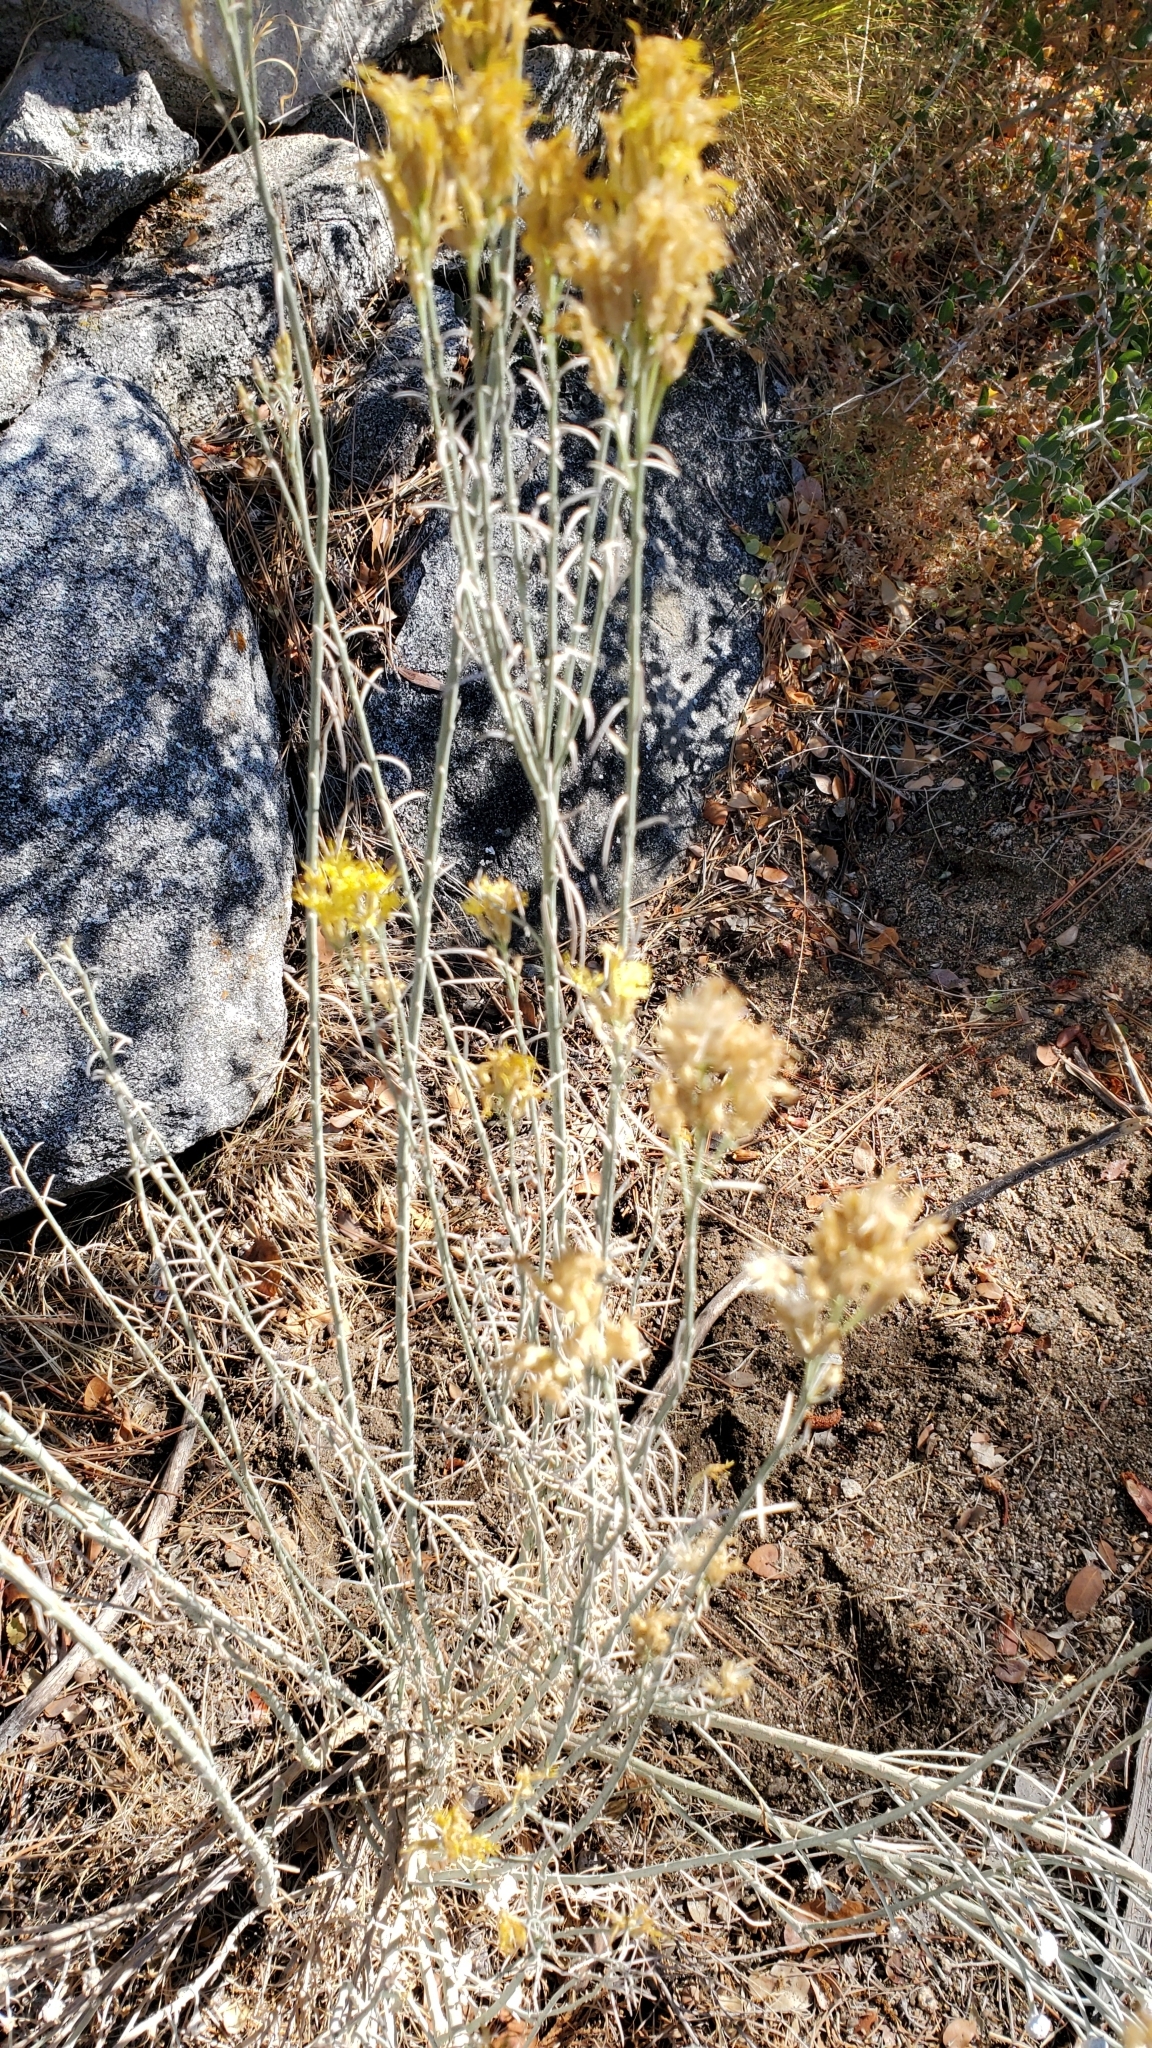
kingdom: Plantae
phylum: Tracheophyta
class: Magnoliopsida
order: Asterales
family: Asteraceae
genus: Ericameria
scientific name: Ericameria nauseosa
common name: Rubber rabbitbrush
